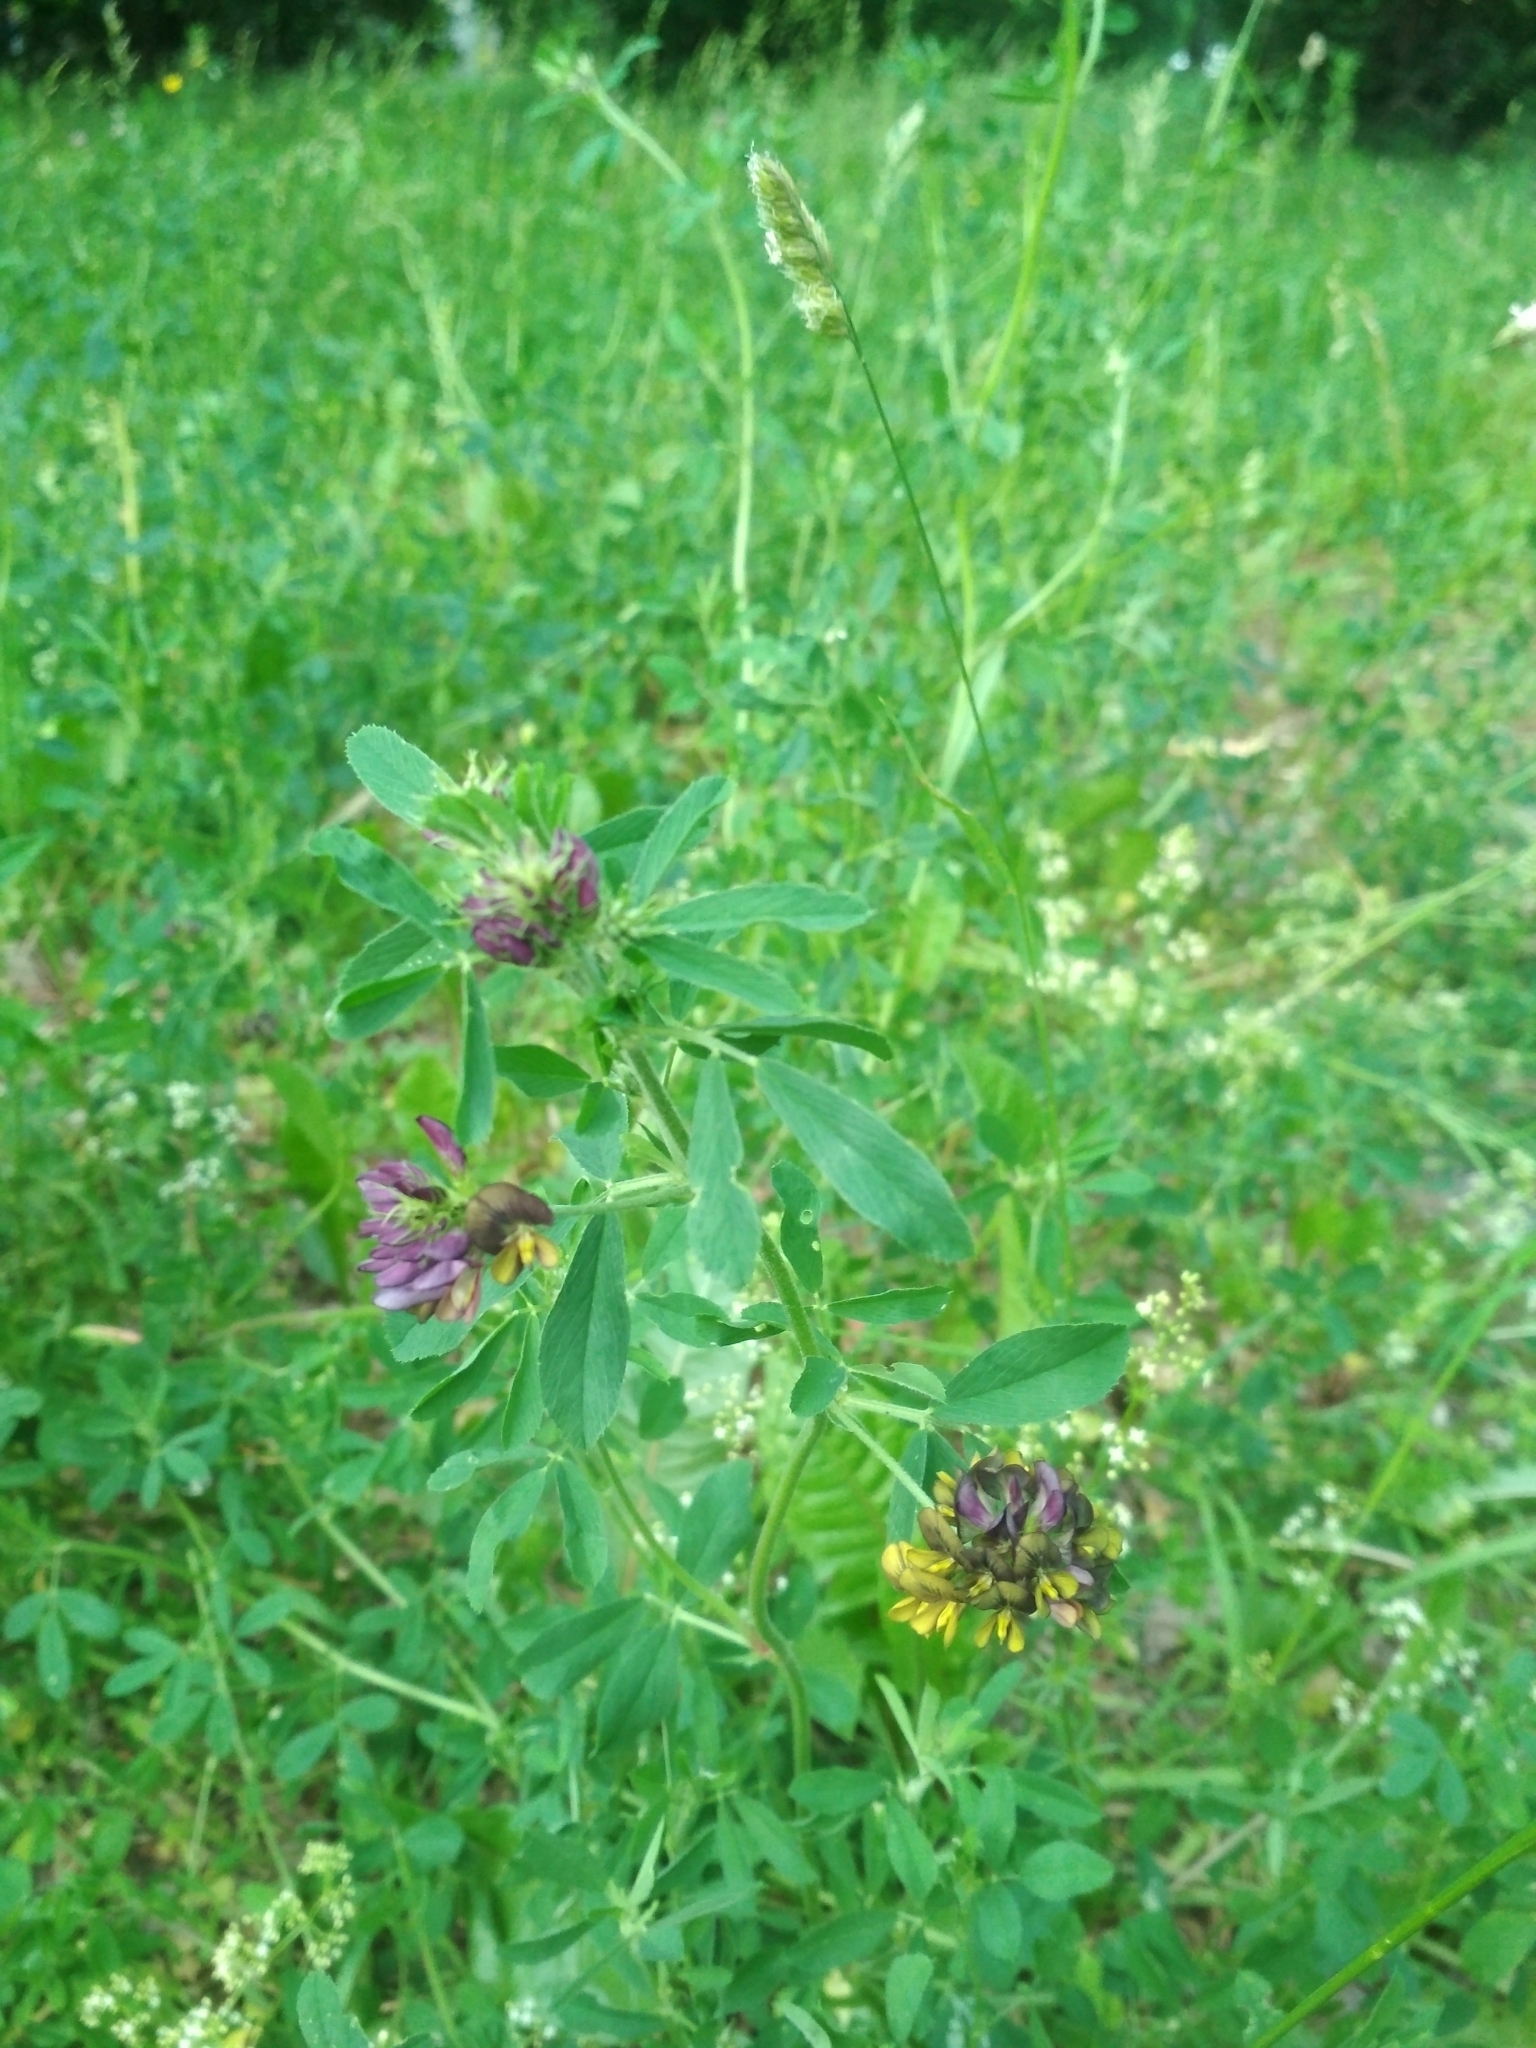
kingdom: Plantae
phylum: Tracheophyta
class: Magnoliopsida
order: Fabales
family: Fabaceae
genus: Medicago
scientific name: Medicago varia
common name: Sand lucerne
